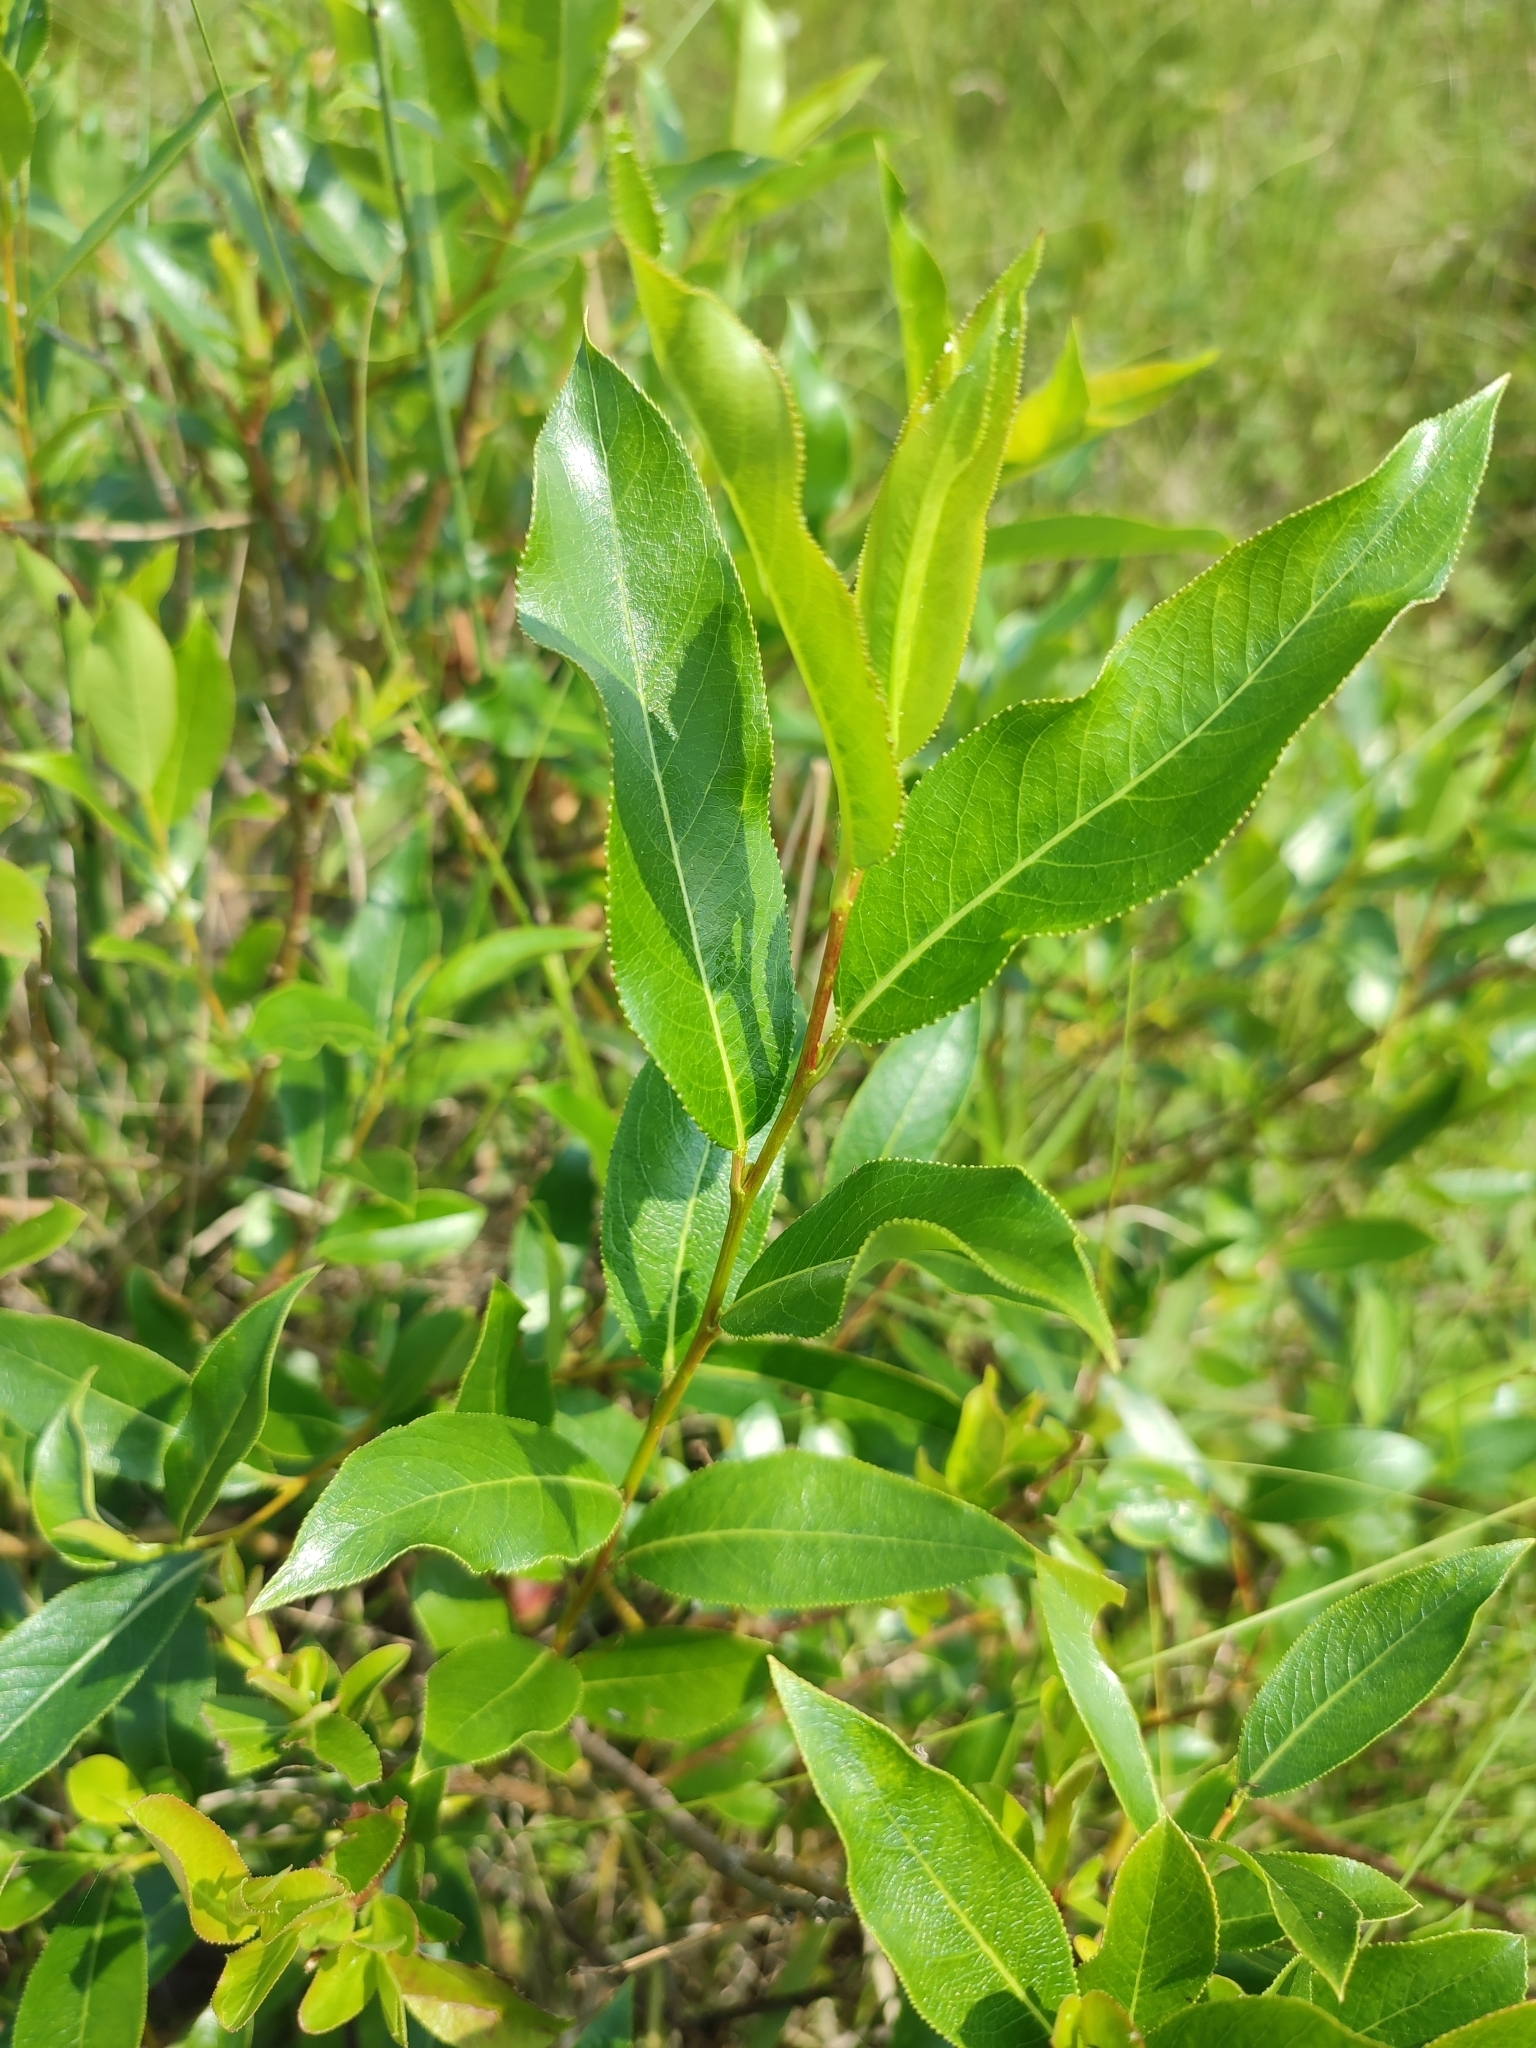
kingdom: Plantae
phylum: Tracheophyta
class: Magnoliopsida
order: Malpighiales
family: Salicaceae
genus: Salix
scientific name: Salix pentandra
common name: Bay willow
